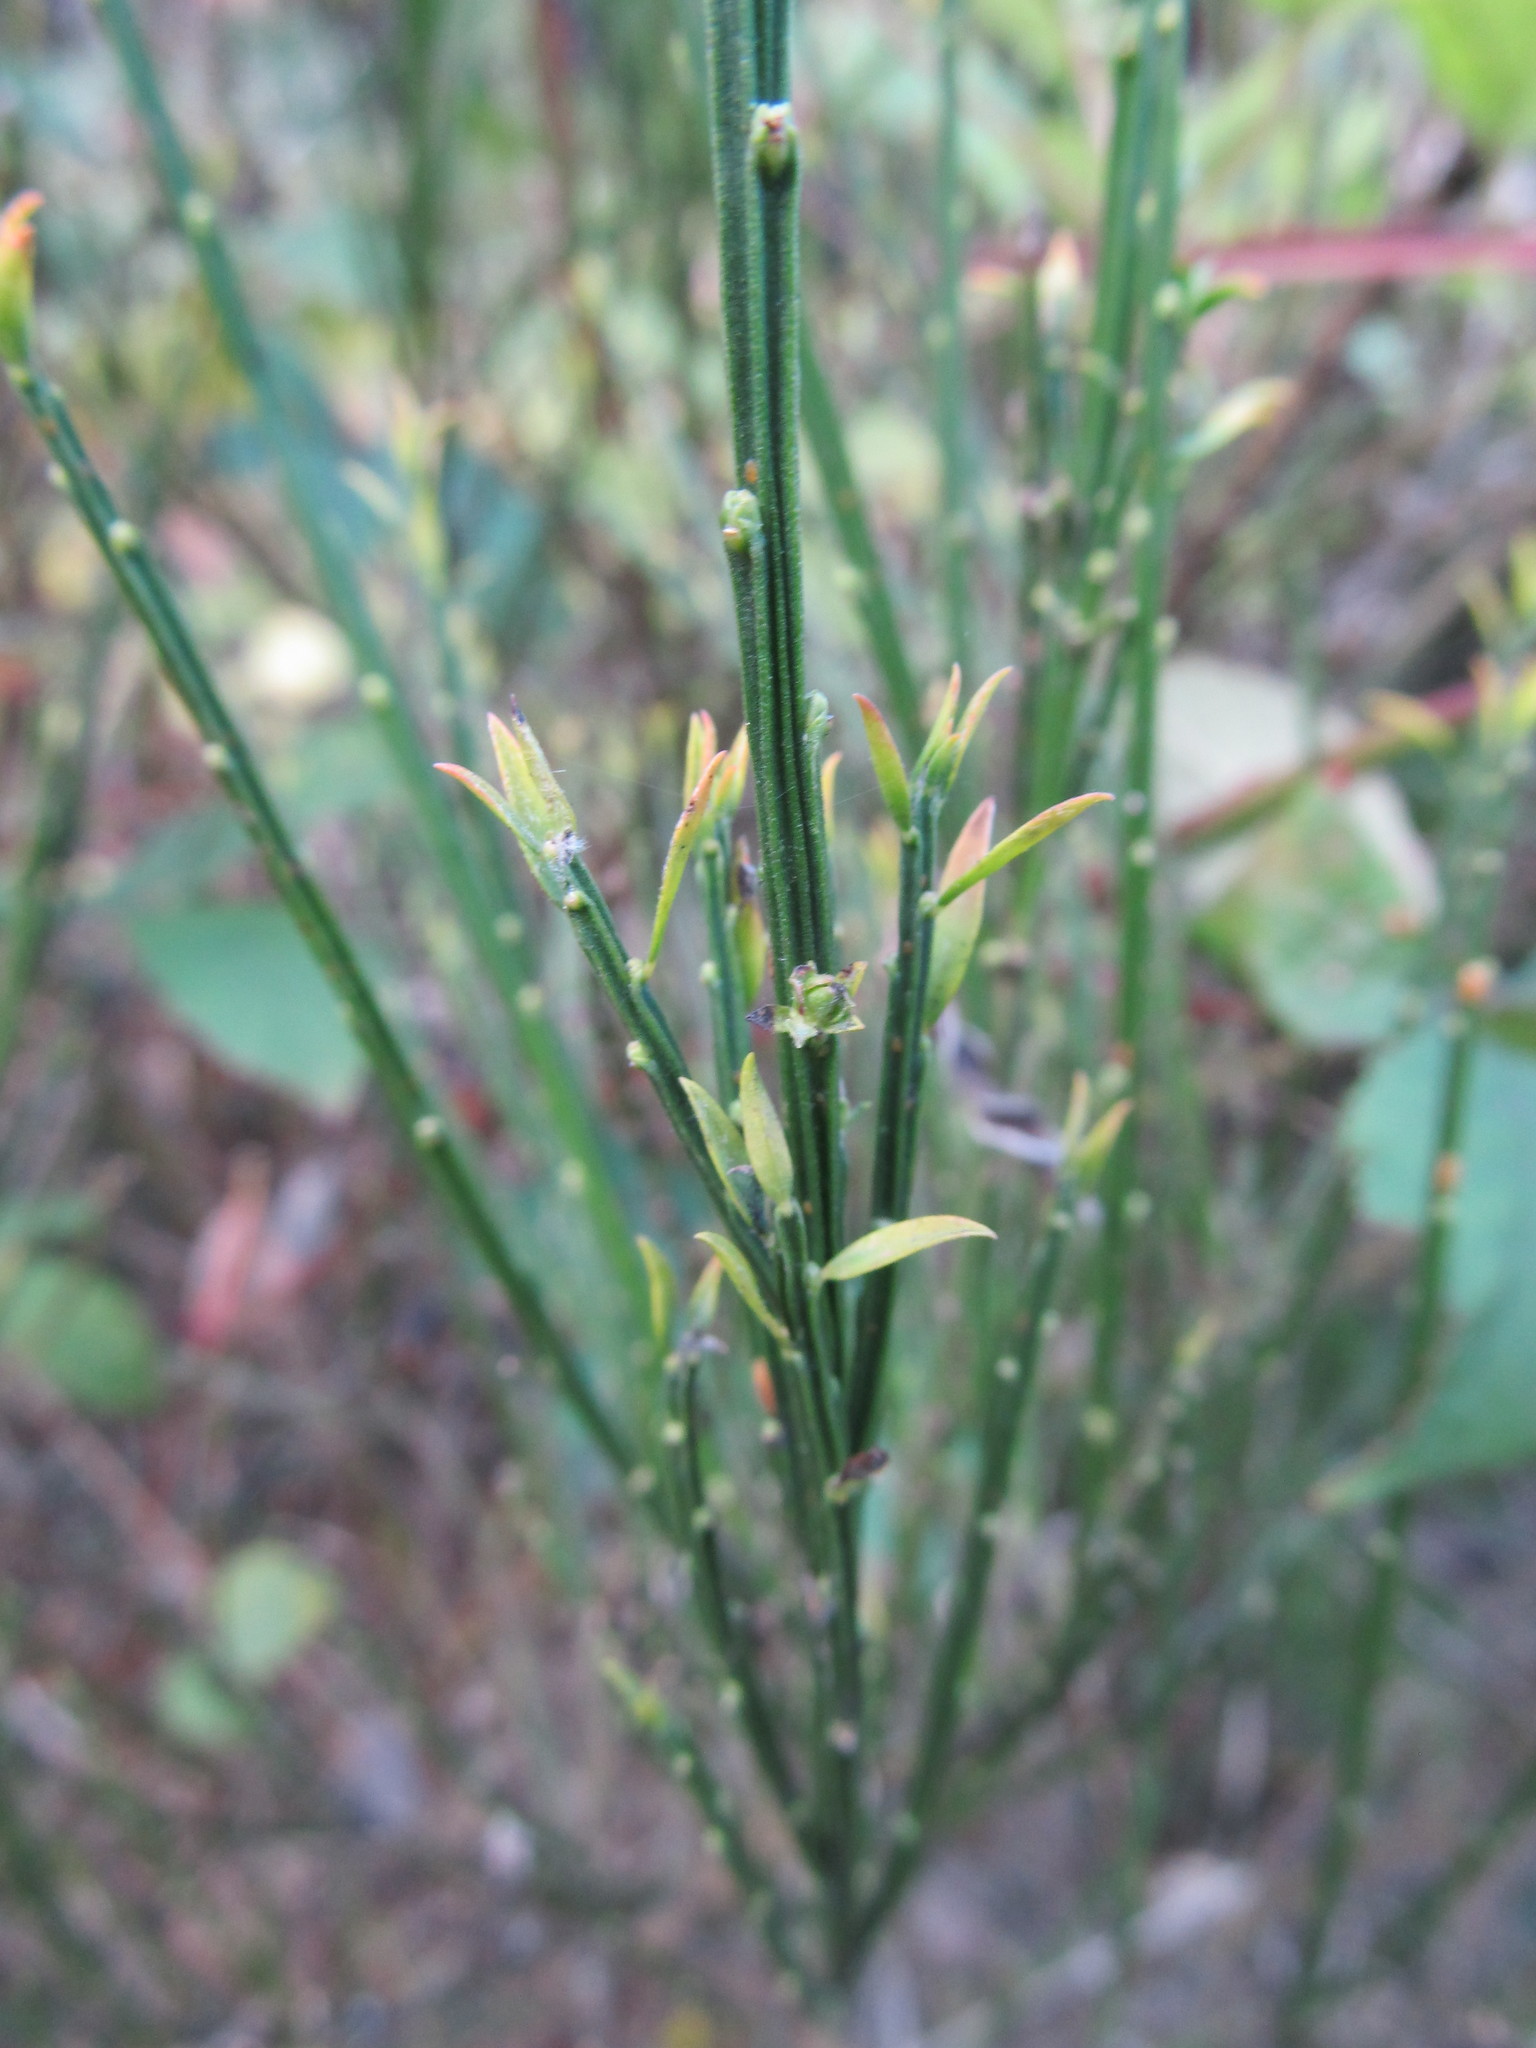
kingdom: Plantae
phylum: Tracheophyta
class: Magnoliopsida
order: Fabales
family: Fabaceae
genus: Cytisus
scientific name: Cytisus scoparius
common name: Scotch broom
